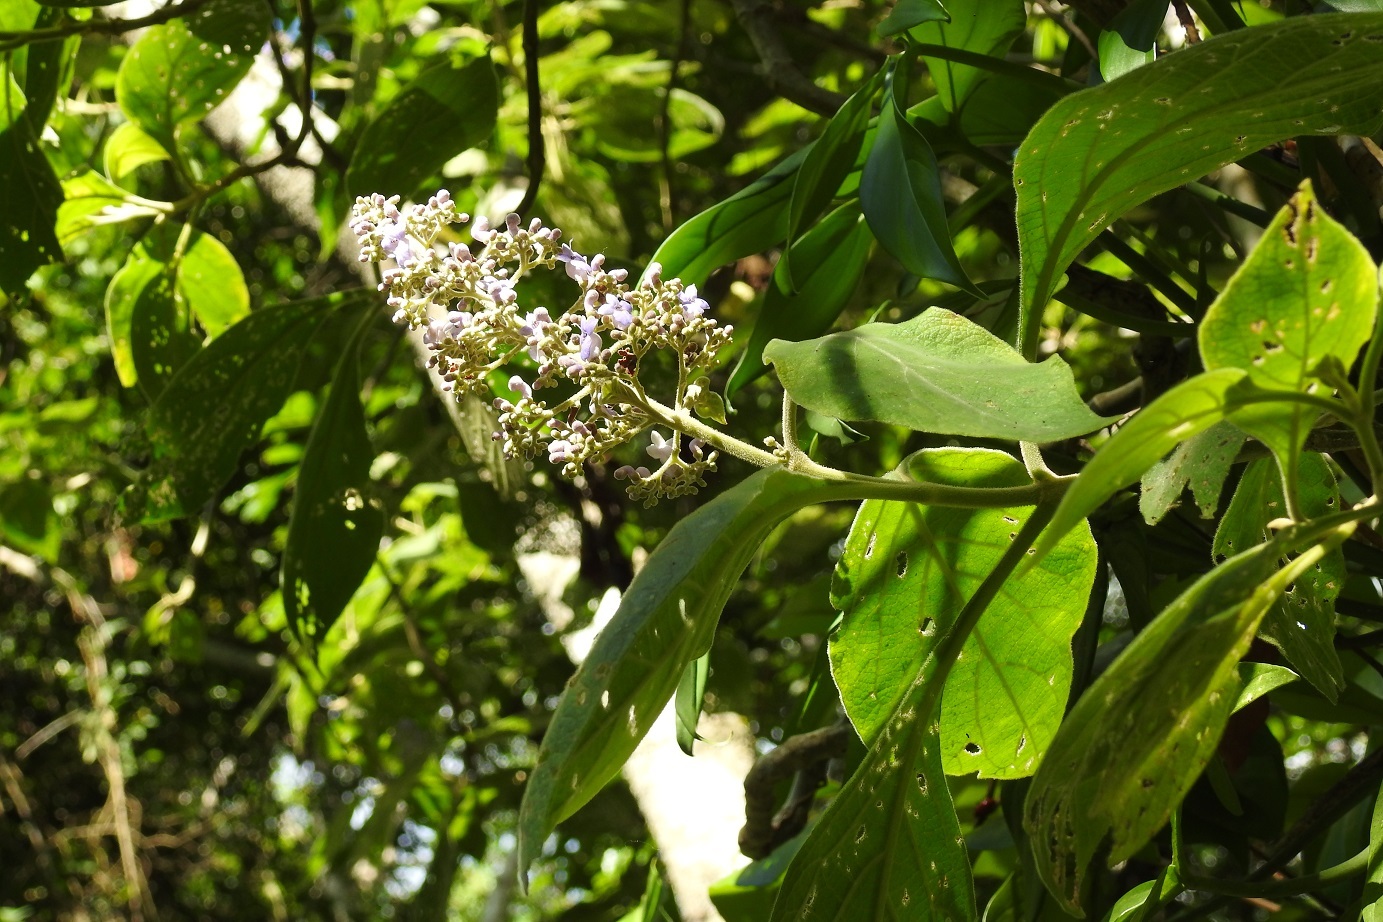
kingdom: Plantae
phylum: Tracheophyta
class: Magnoliopsida
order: Lamiales
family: Lamiaceae
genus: Cornutia
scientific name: Cornutia pyramidata
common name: Azulejo
